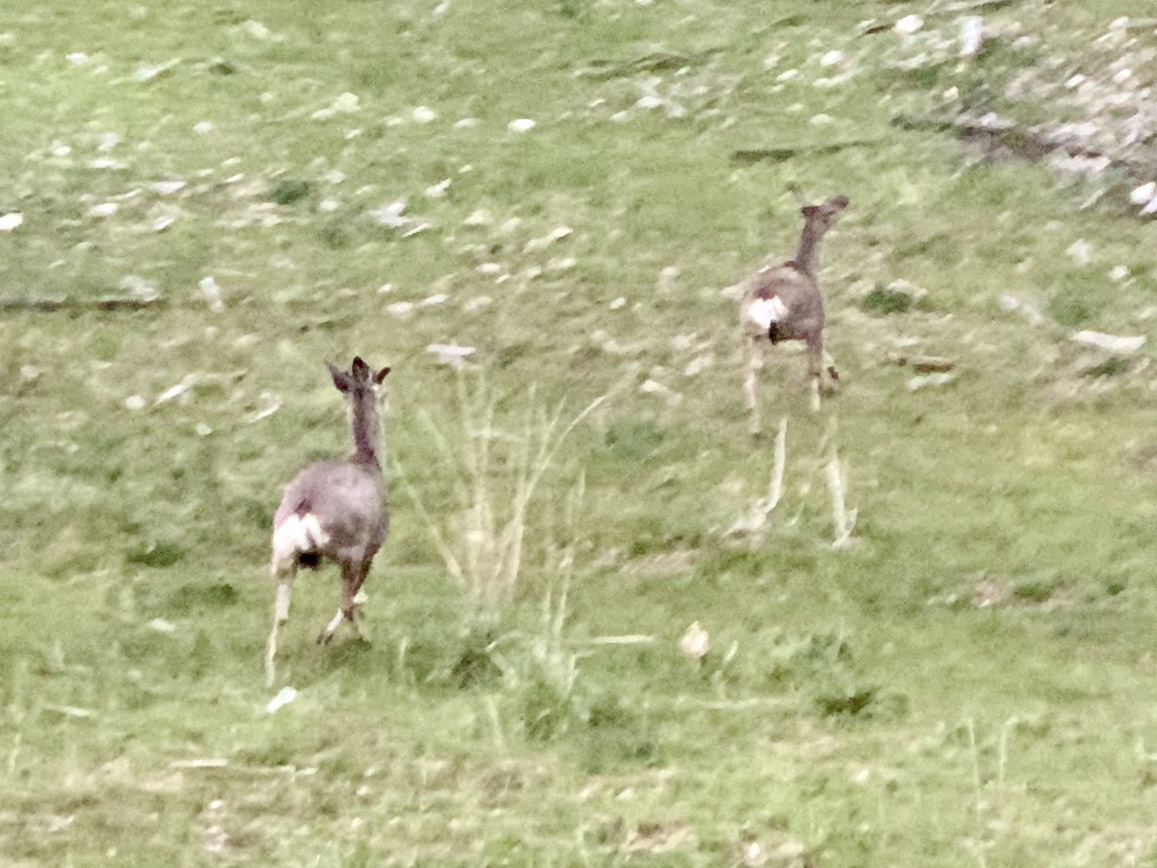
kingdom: Animalia
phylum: Chordata
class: Mammalia
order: Artiodactyla
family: Cervidae
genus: Odocoileus
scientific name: Odocoileus hemionus
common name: Mule deer
